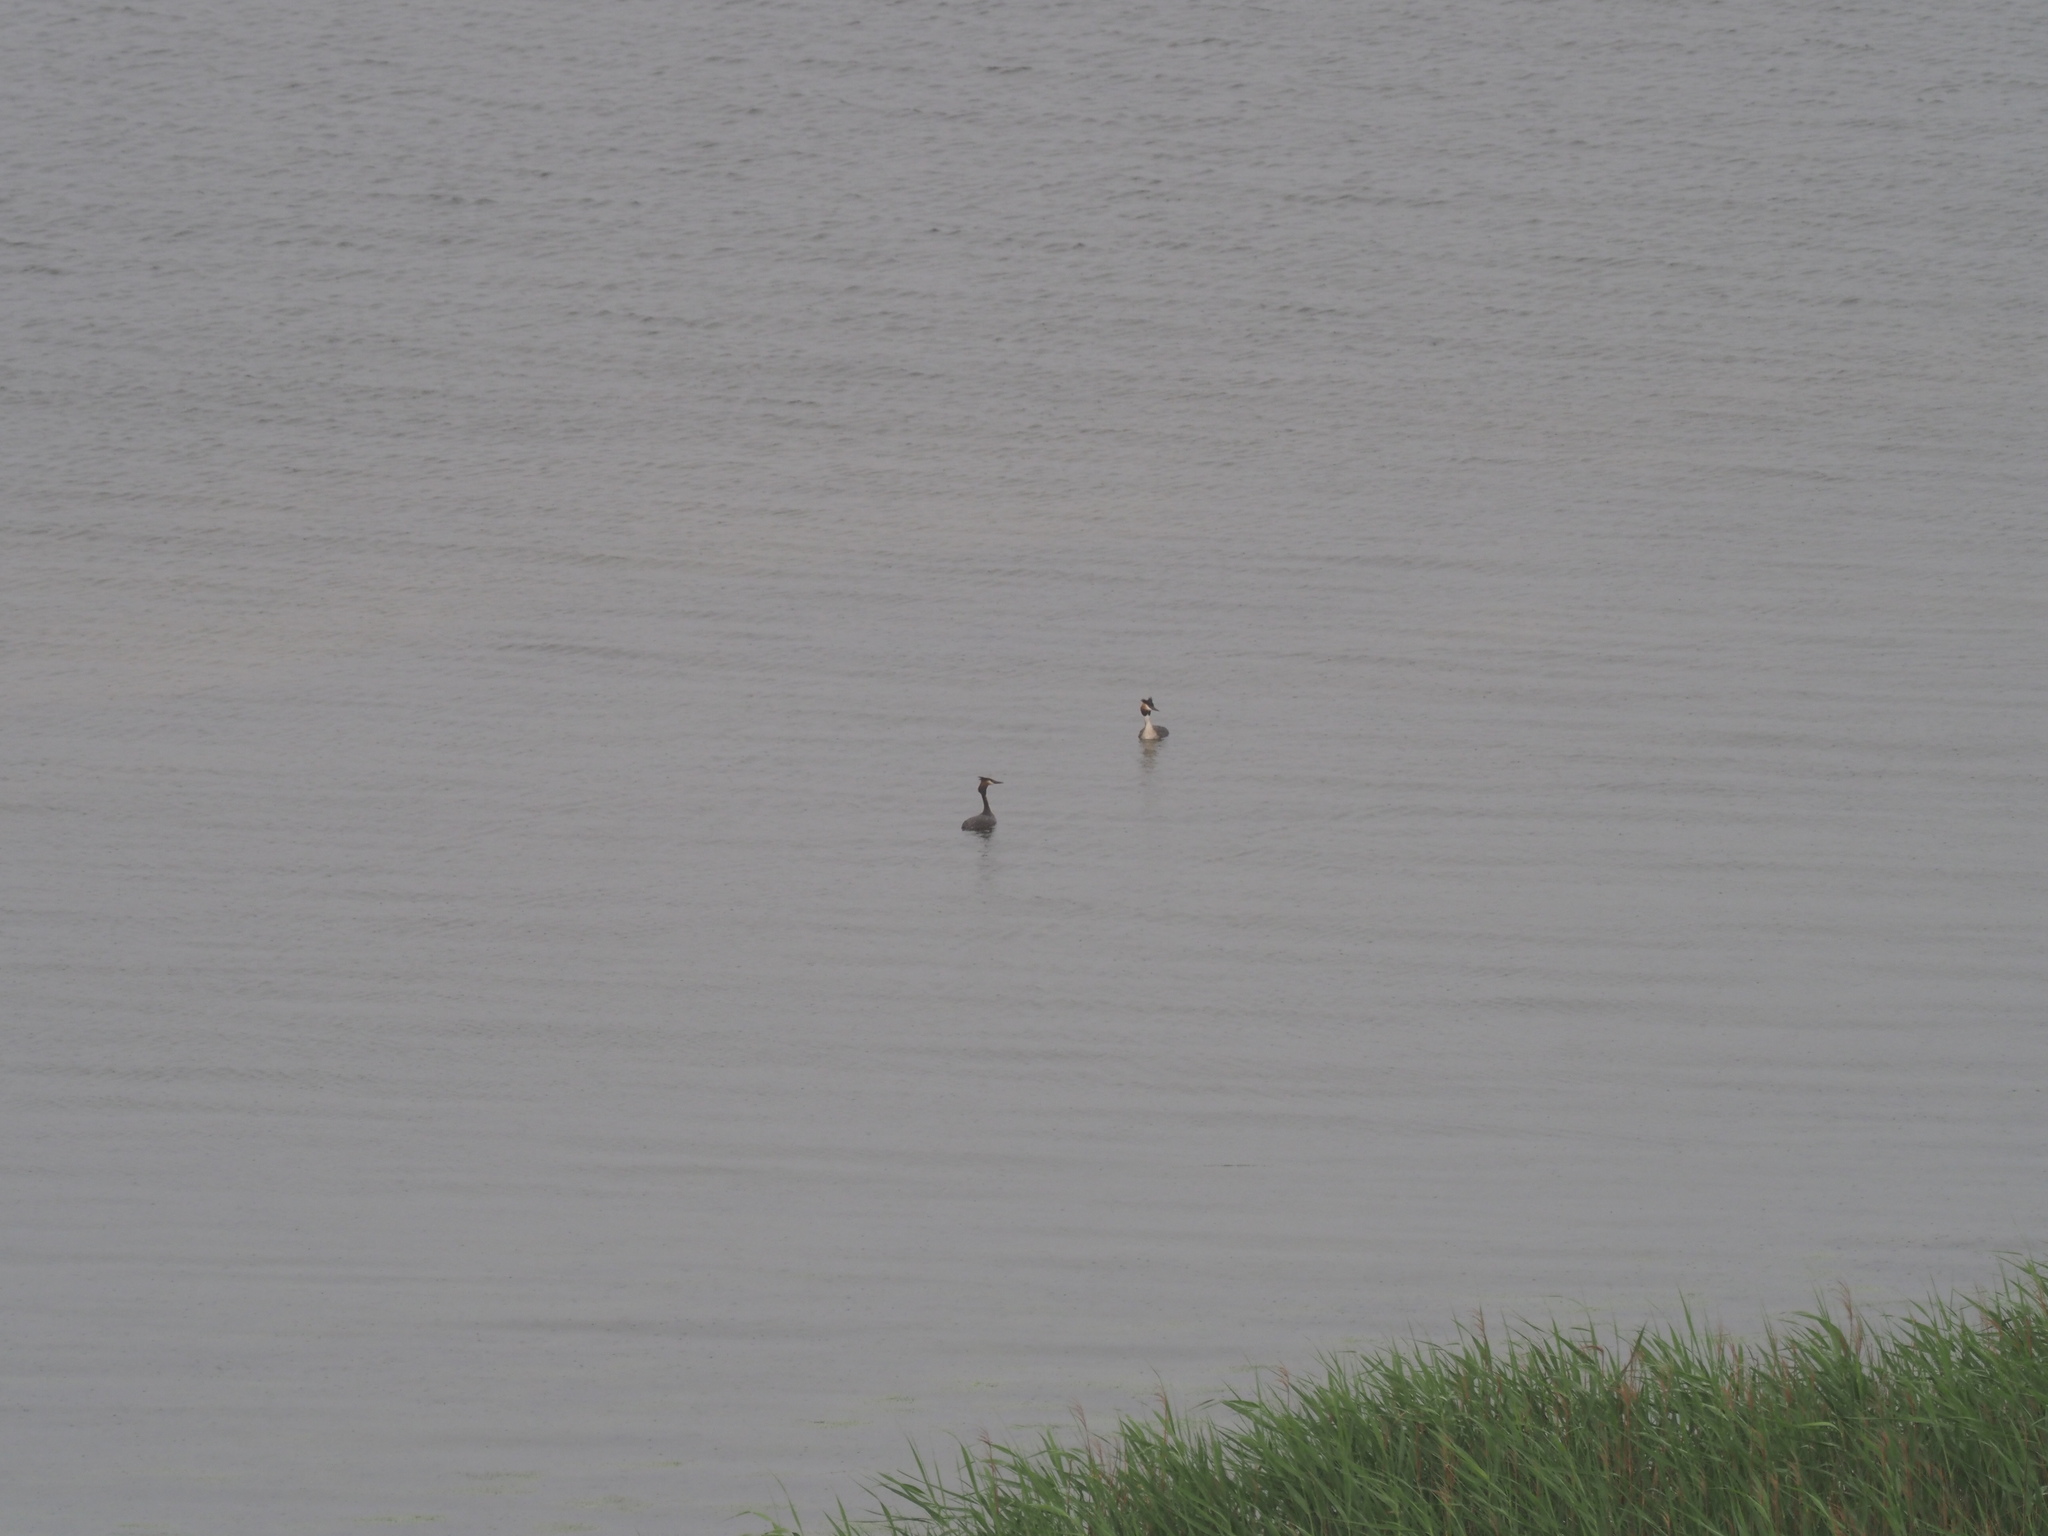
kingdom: Animalia
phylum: Chordata
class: Aves
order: Podicipediformes
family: Podicipedidae
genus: Podiceps
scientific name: Podiceps cristatus
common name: Great crested grebe
